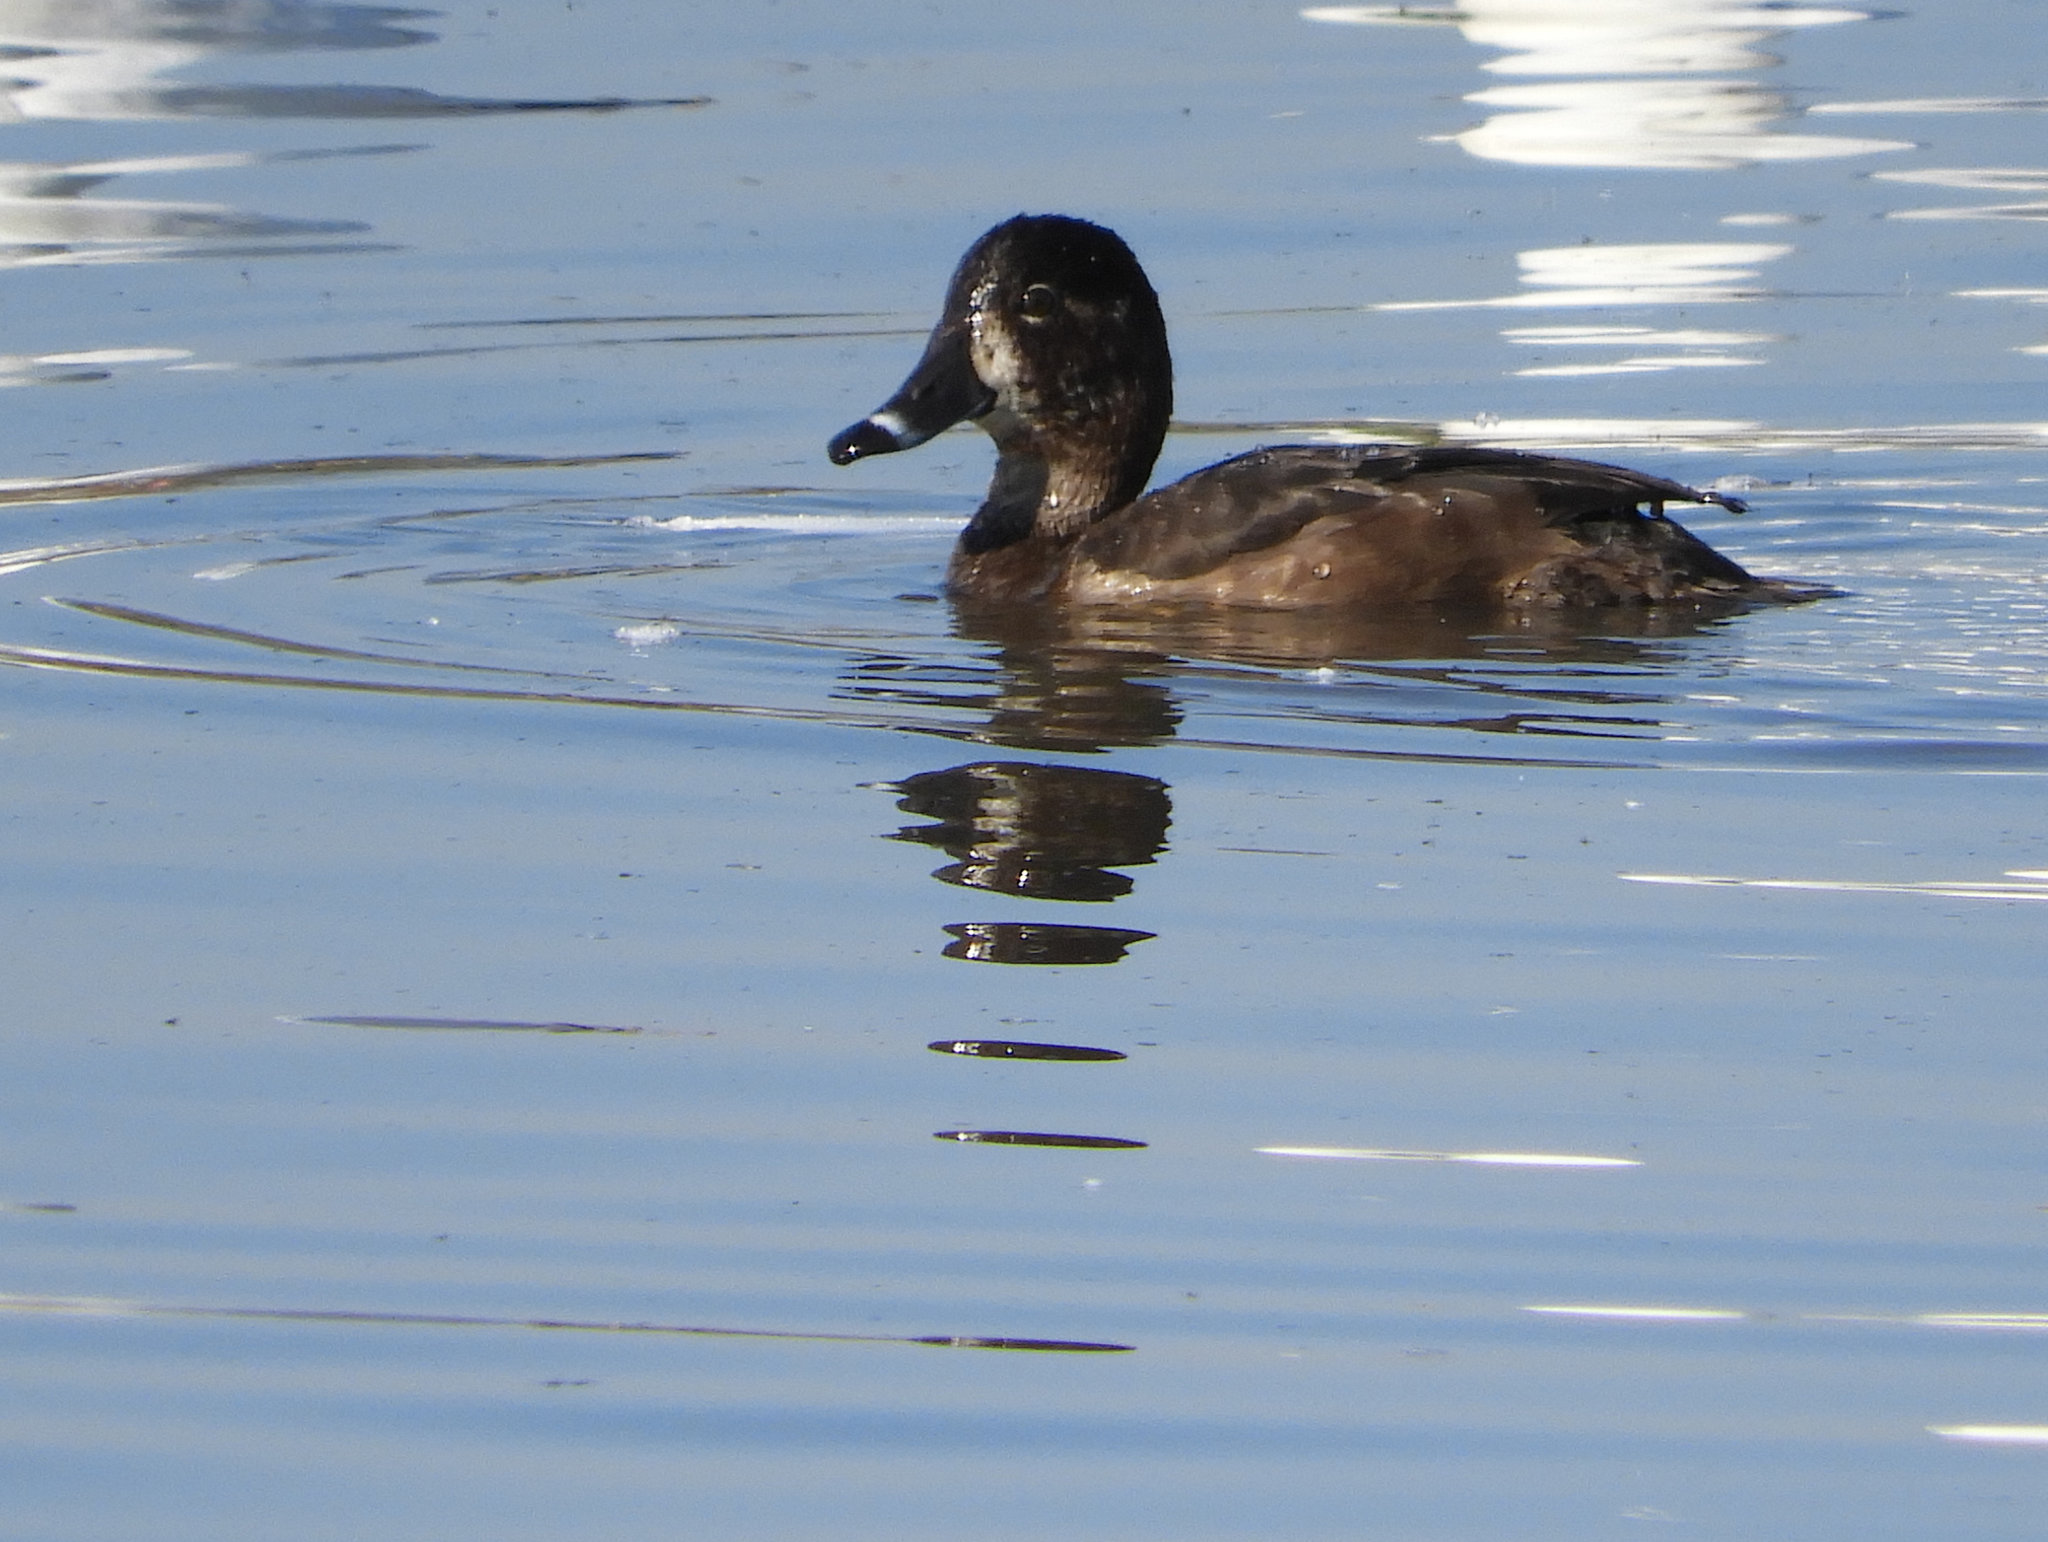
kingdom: Animalia
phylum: Chordata
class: Aves
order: Anseriformes
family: Anatidae
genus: Aythya
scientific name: Aythya collaris
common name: Ring-necked duck
